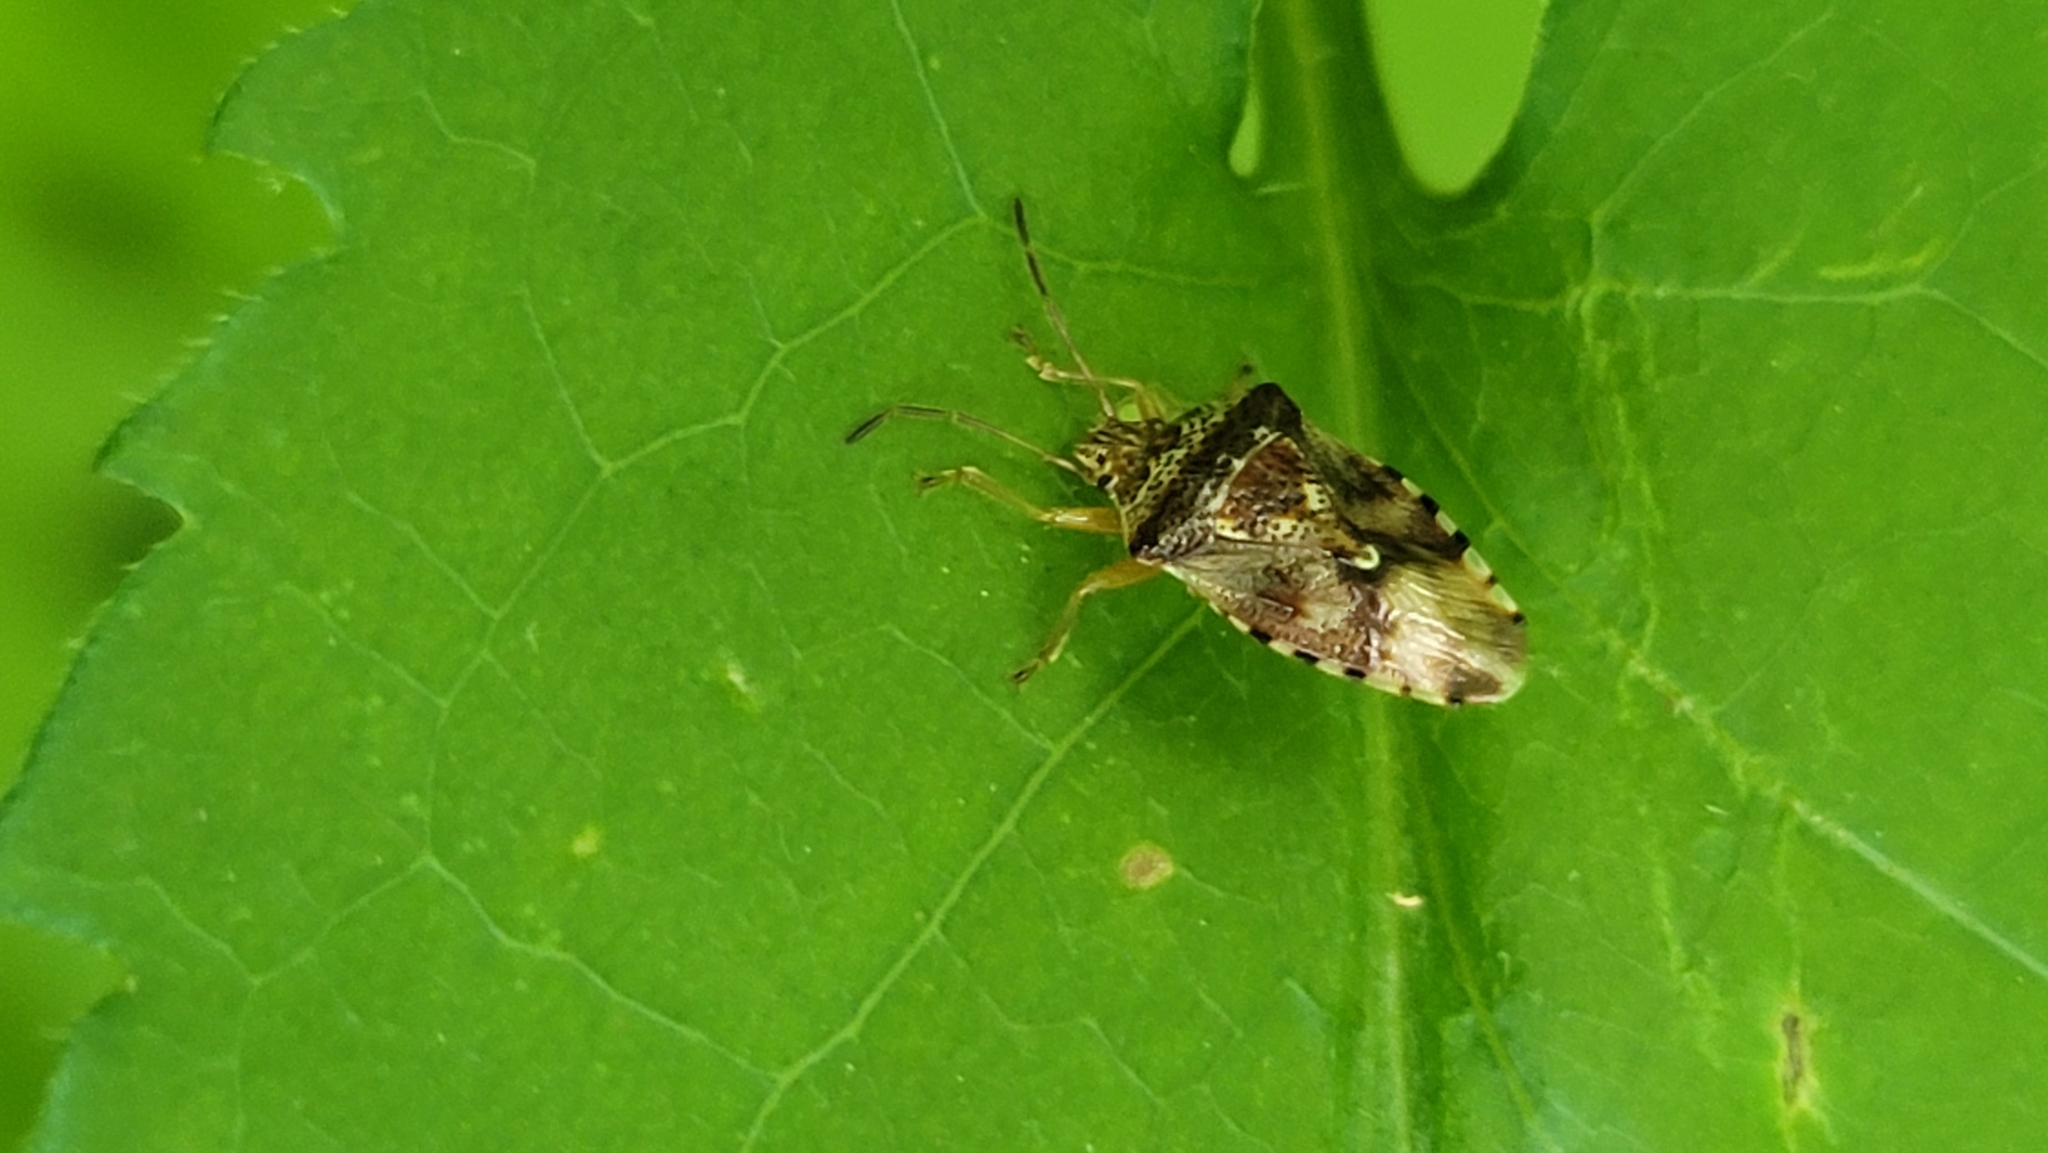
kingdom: Animalia
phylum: Arthropoda
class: Insecta
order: Hemiptera
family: Acanthosomatidae
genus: Elasmucha
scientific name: Elasmucha lateralis
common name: Shield bug
